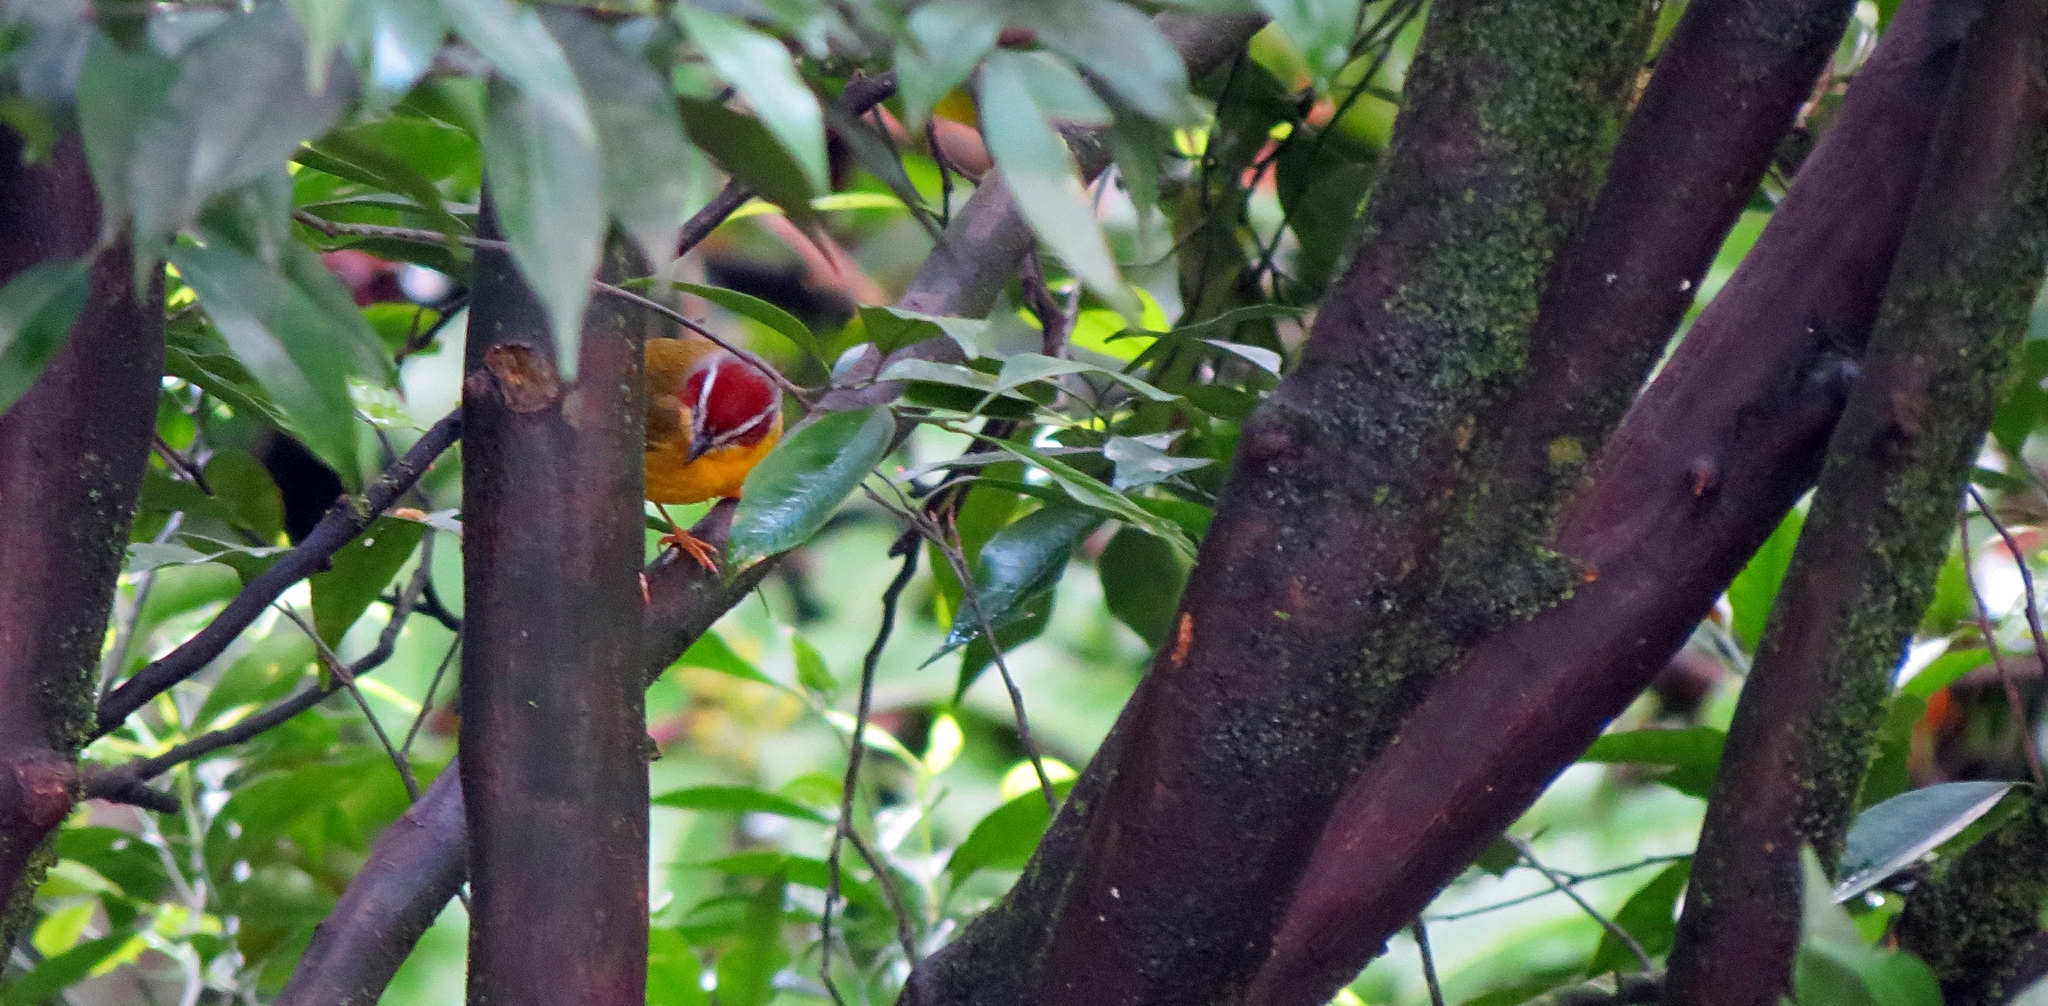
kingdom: Animalia
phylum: Chordata
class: Aves
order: Passeriformes
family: Parulidae
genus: Basileuterus
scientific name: Basileuterus rufifrons
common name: Rufous-capped warbler
